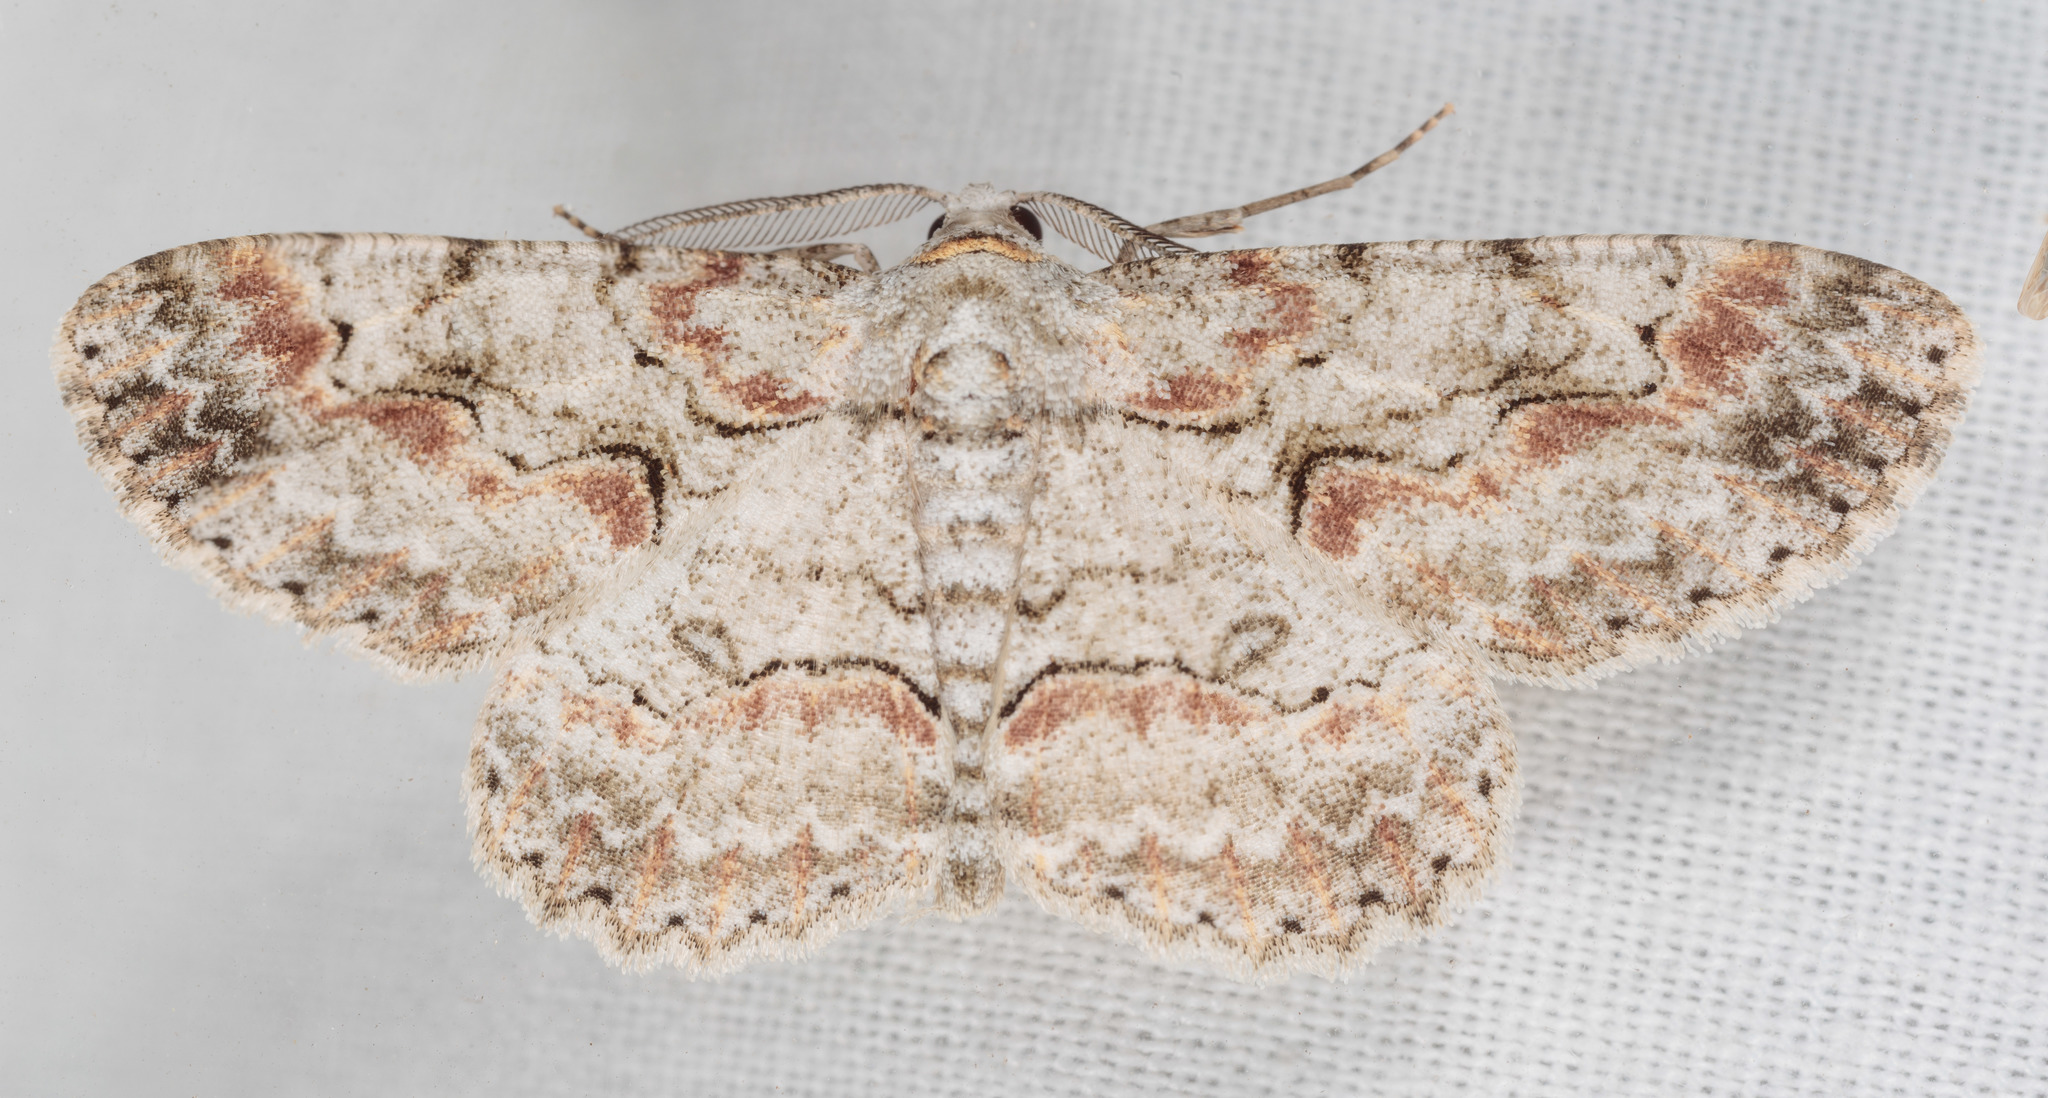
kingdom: Animalia
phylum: Arthropoda
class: Insecta
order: Lepidoptera
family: Geometridae
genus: Iridopsis
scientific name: Iridopsis defectaria
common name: Brown-shaded gray
